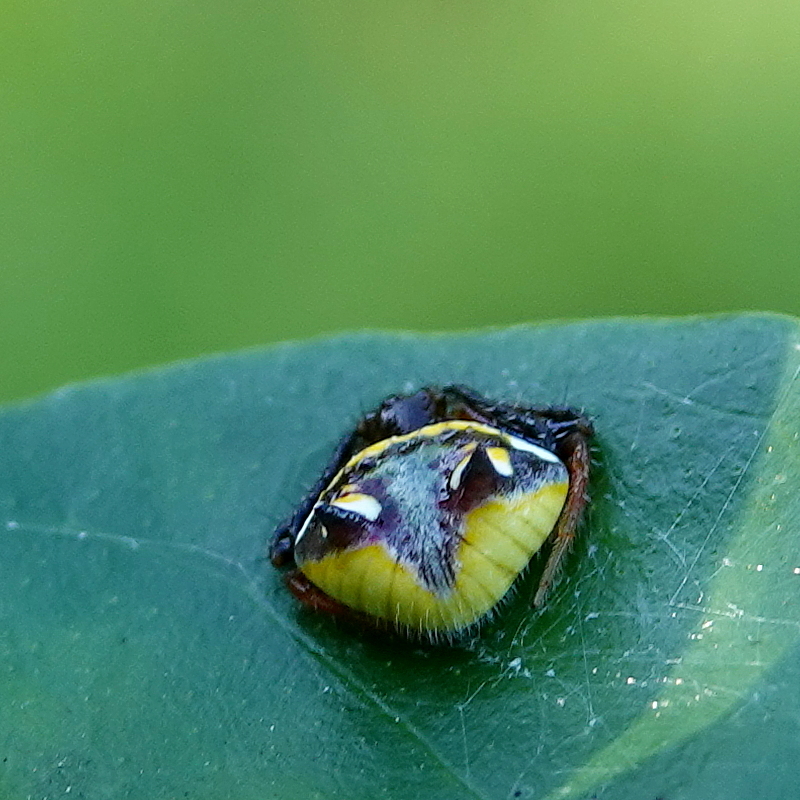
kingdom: Animalia
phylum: Arthropoda
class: Arachnida
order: Araneae
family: Araneidae
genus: Poecilopachys
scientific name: Poecilopachys australasia
